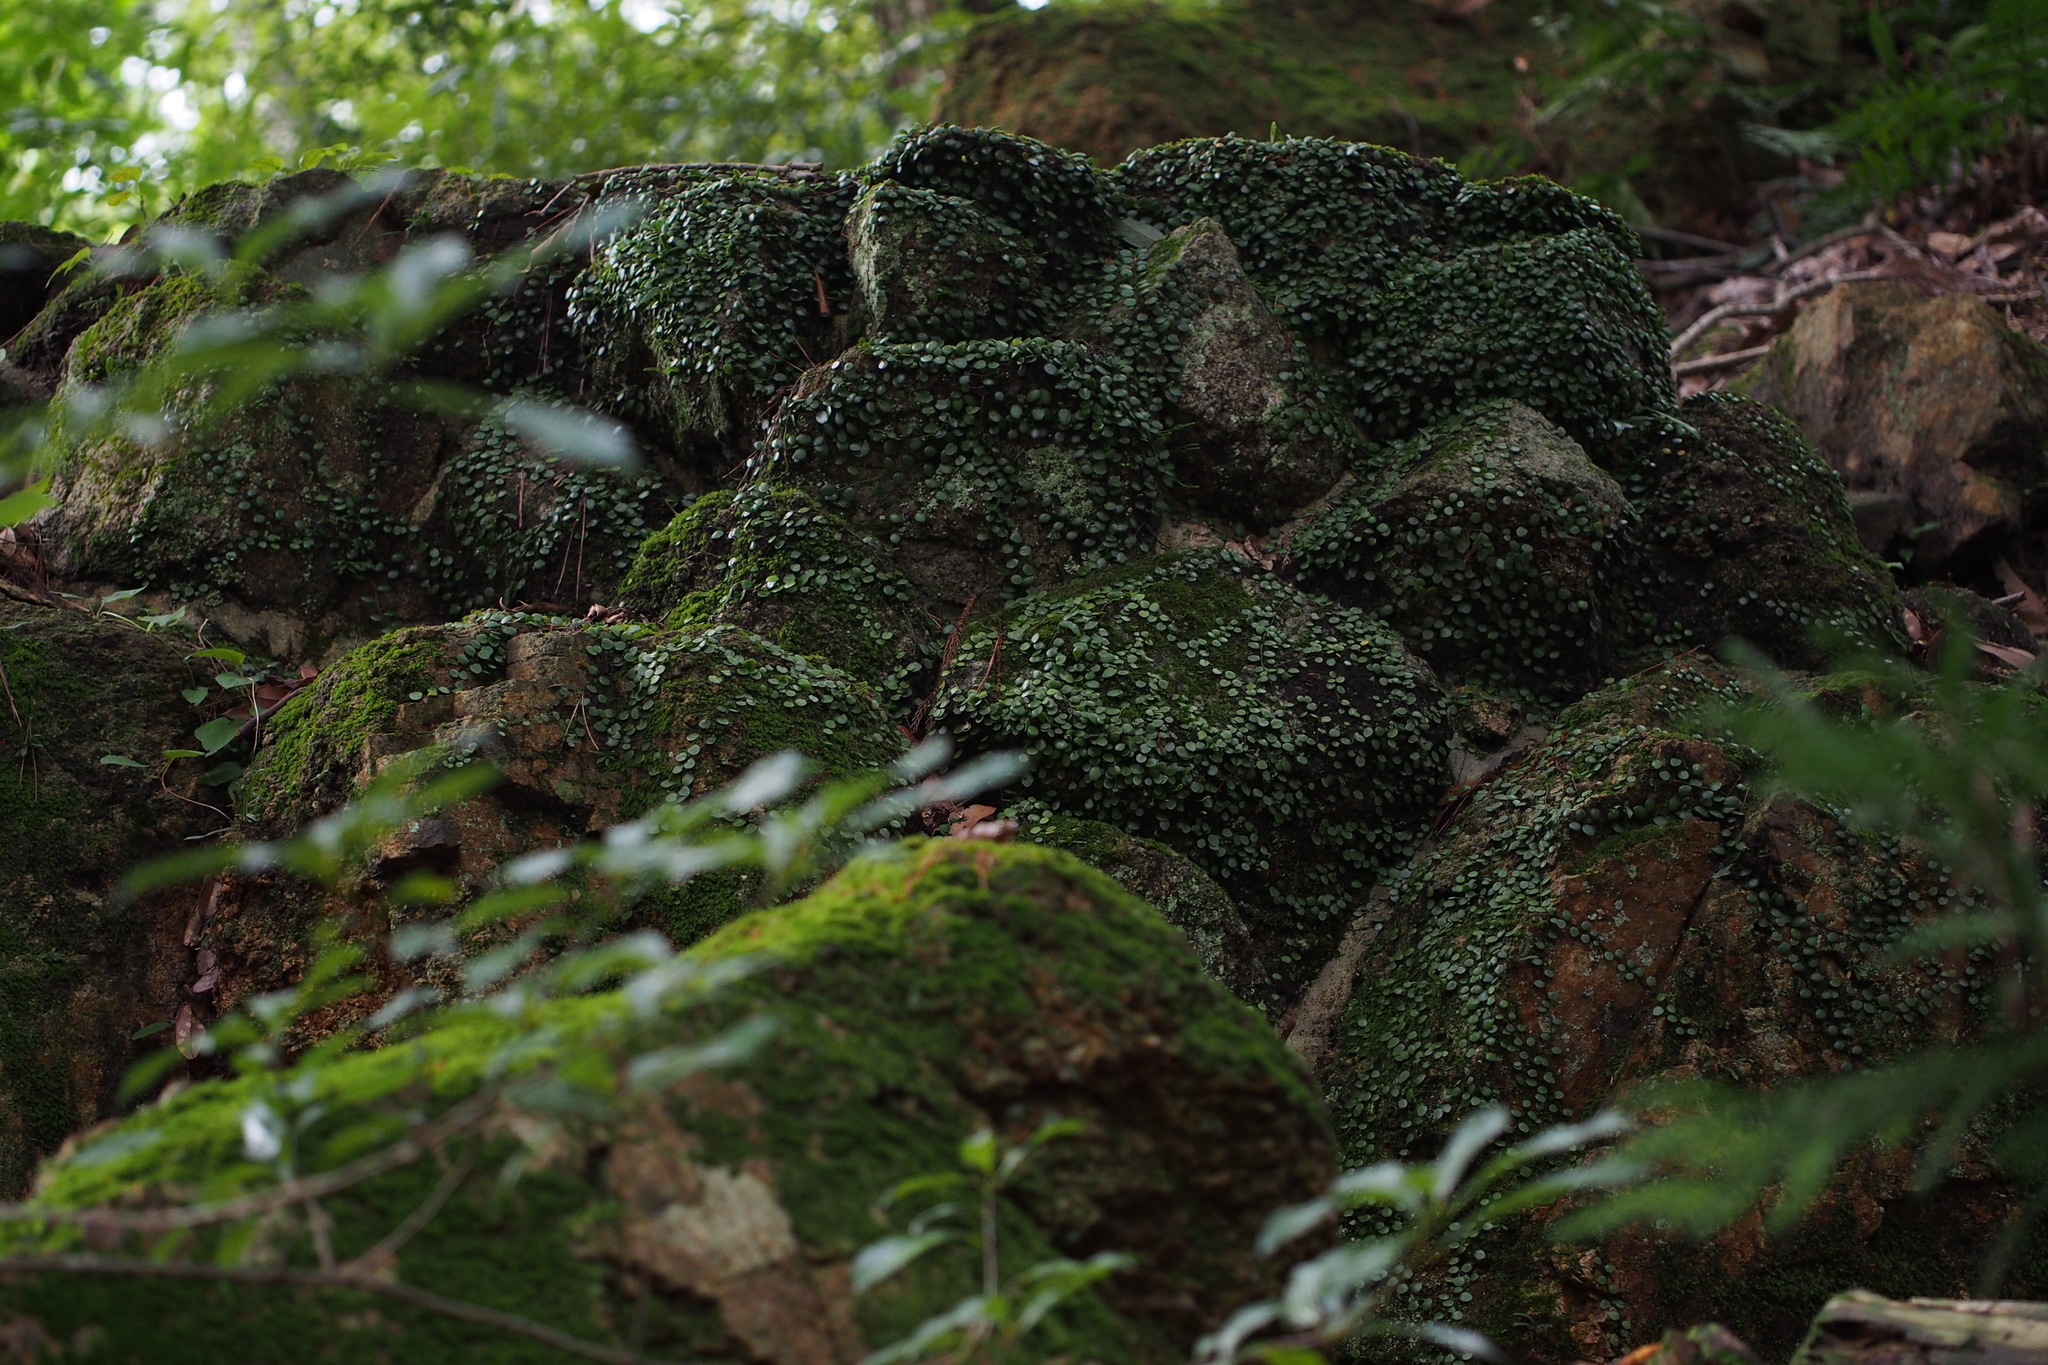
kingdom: Plantae
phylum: Tracheophyta
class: Polypodiopsida
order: Polypodiales
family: Polypodiaceae
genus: Lepisorus
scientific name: Lepisorus microphyllus
